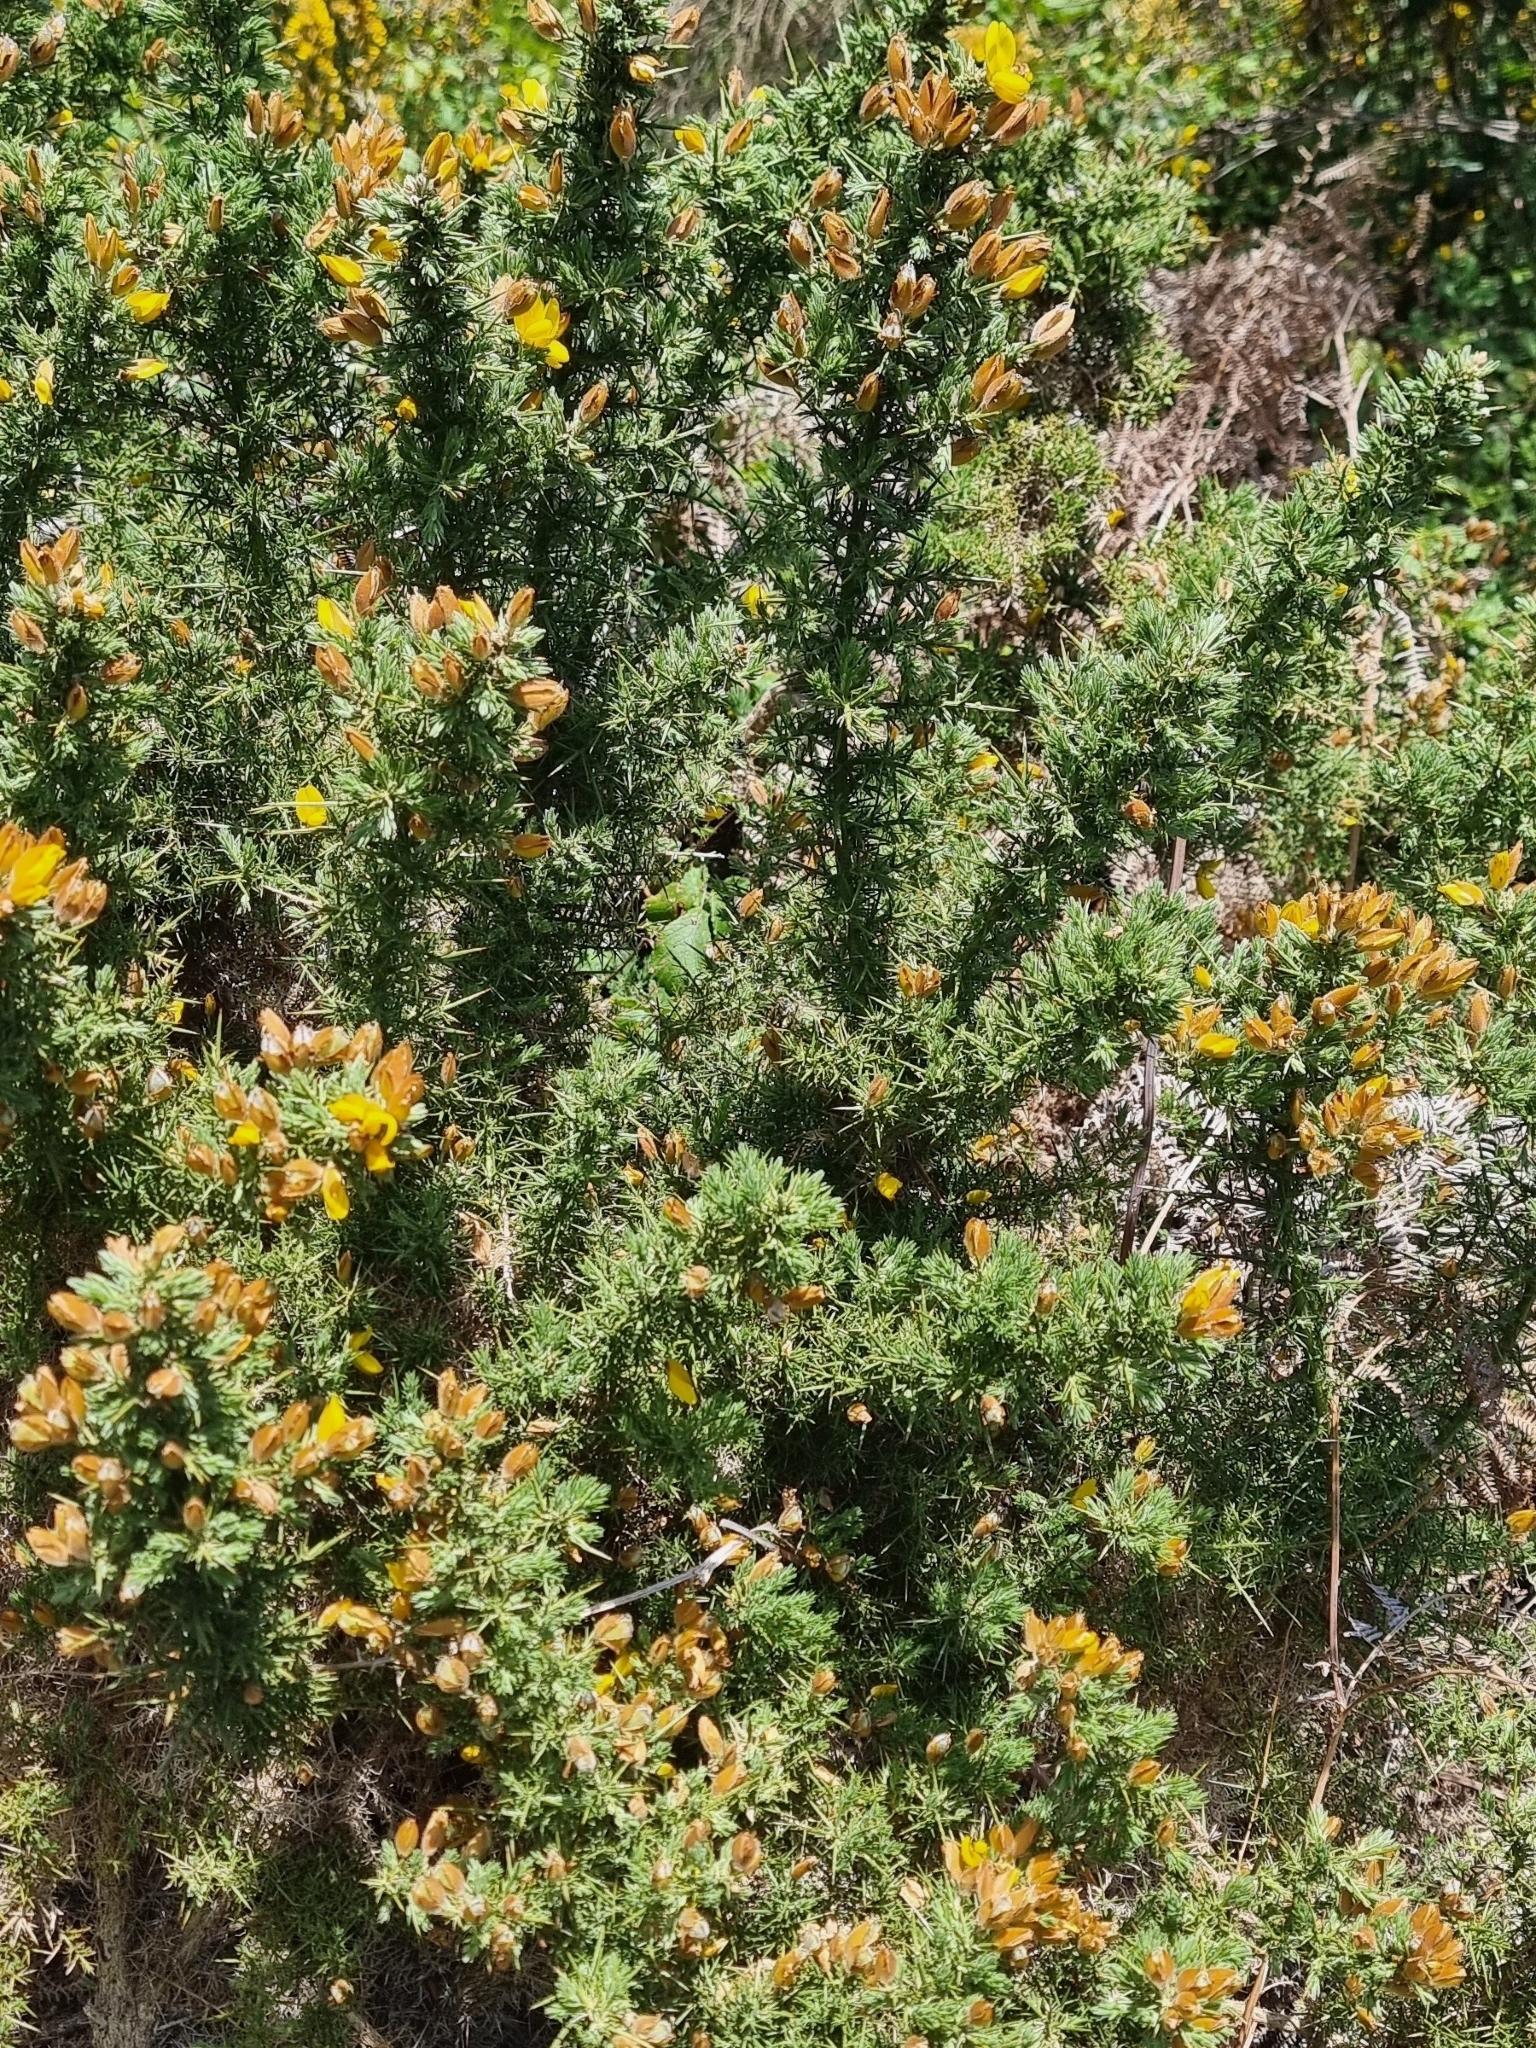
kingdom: Plantae
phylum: Tracheophyta
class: Magnoliopsida
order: Fabales
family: Fabaceae
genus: Ulex
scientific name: Ulex europaeus
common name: Common gorse
